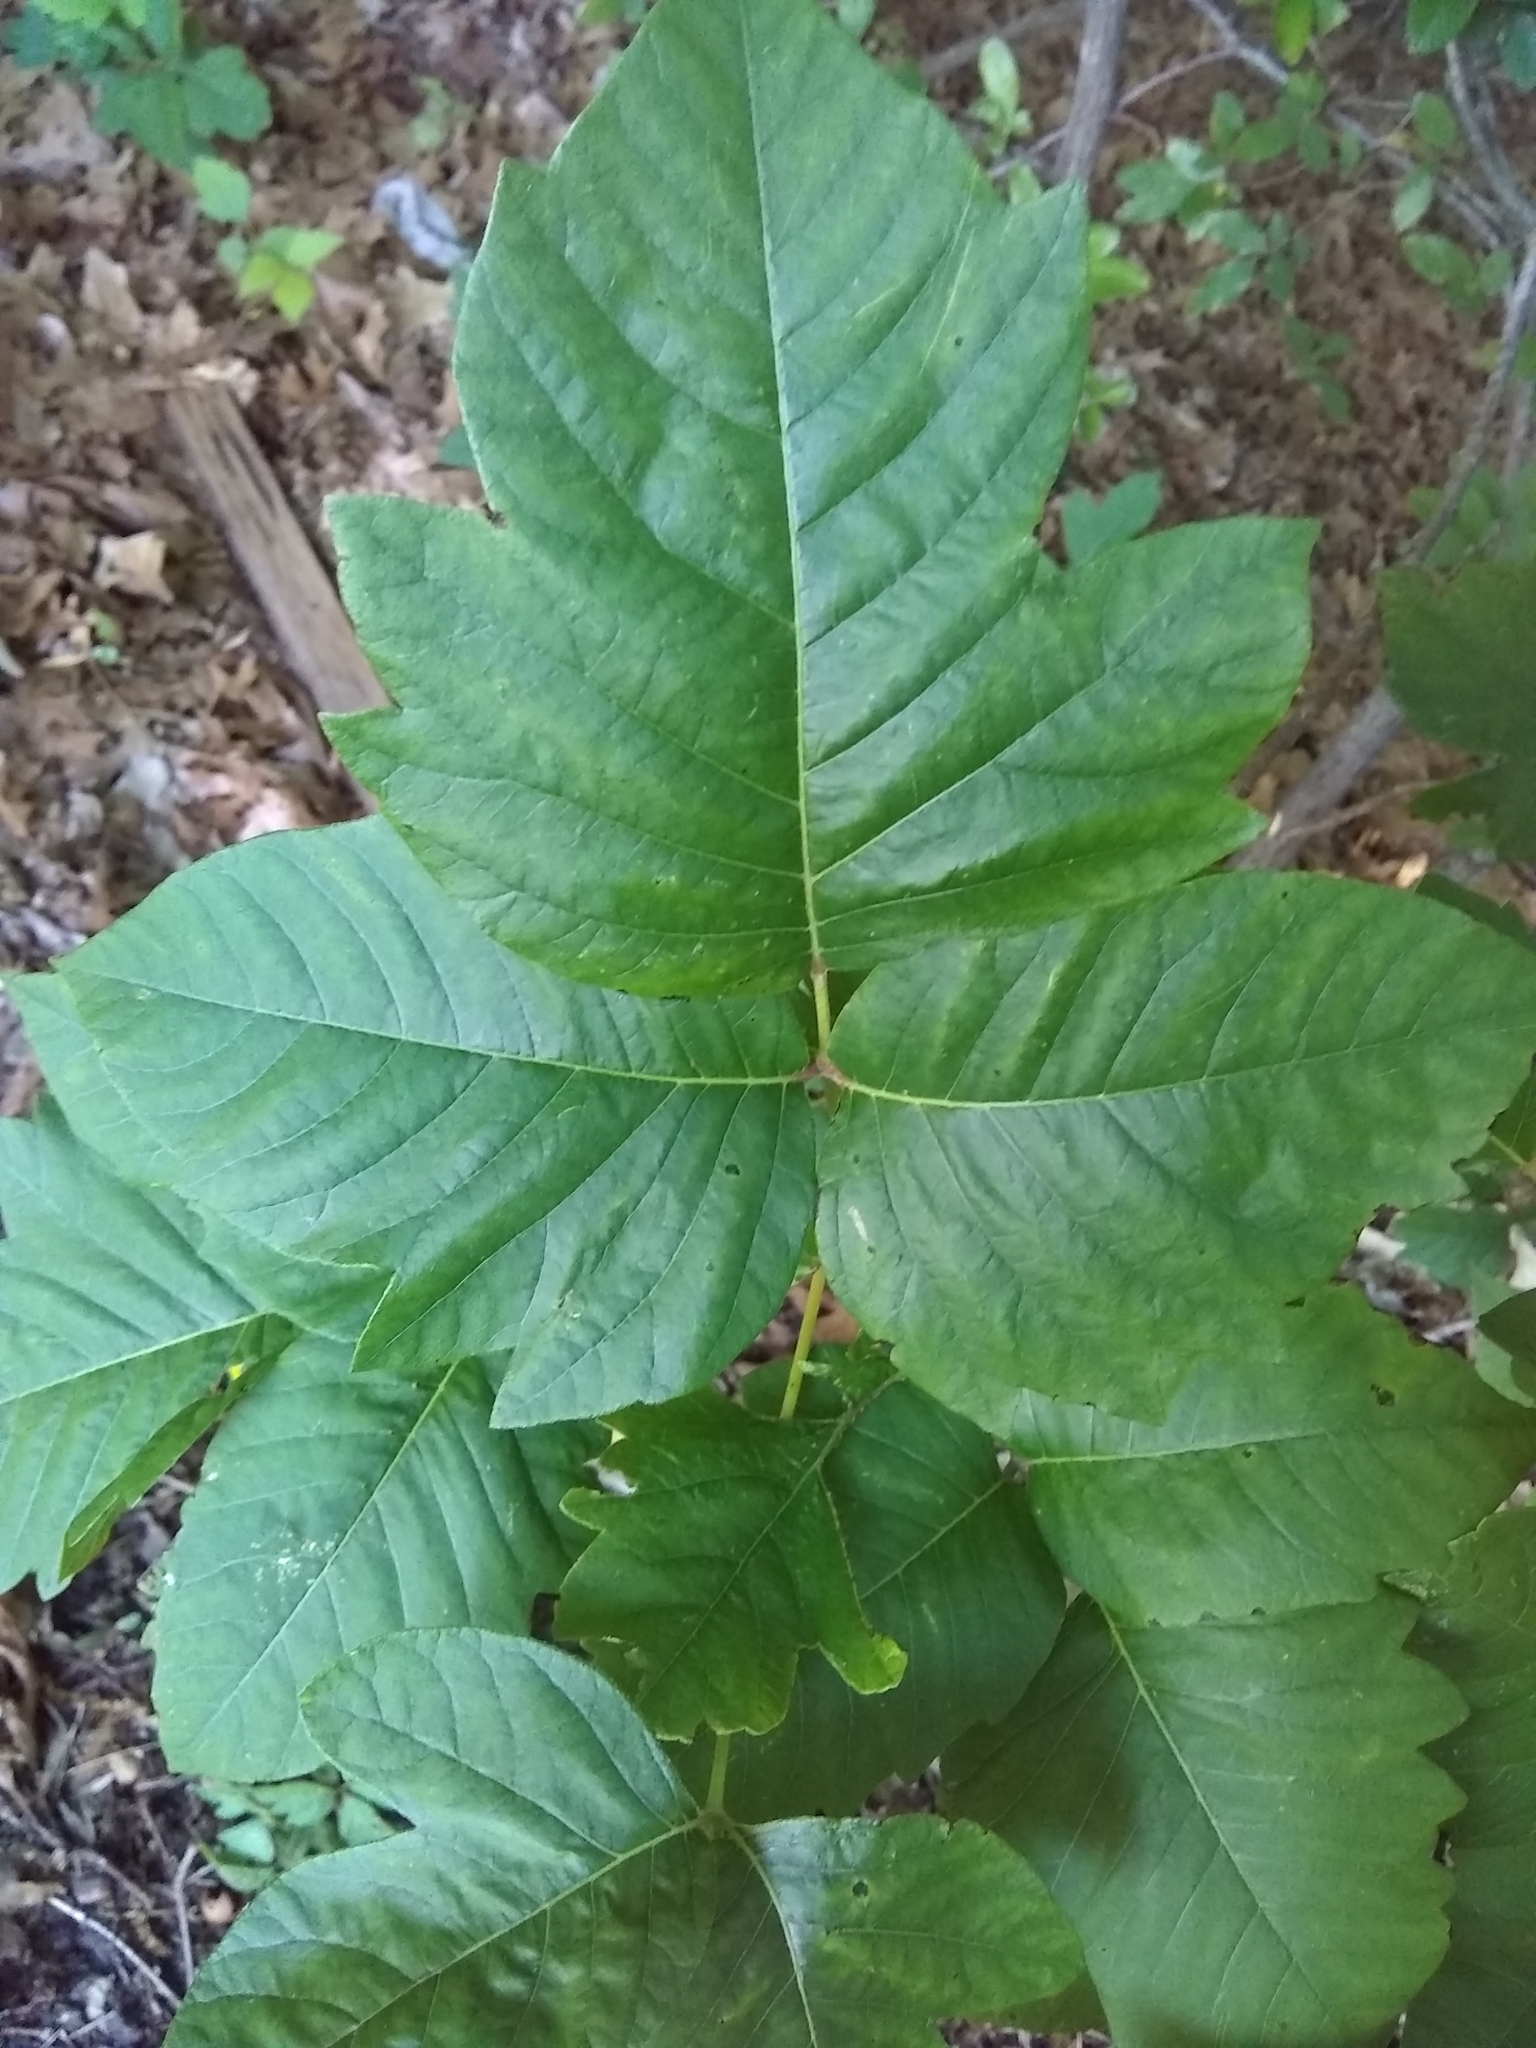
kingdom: Plantae
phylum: Tracheophyta
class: Magnoliopsida
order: Sapindales
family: Anacardiaceae
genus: Toxicodendron
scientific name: Toxicodendron radicans
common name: Poison ivy
